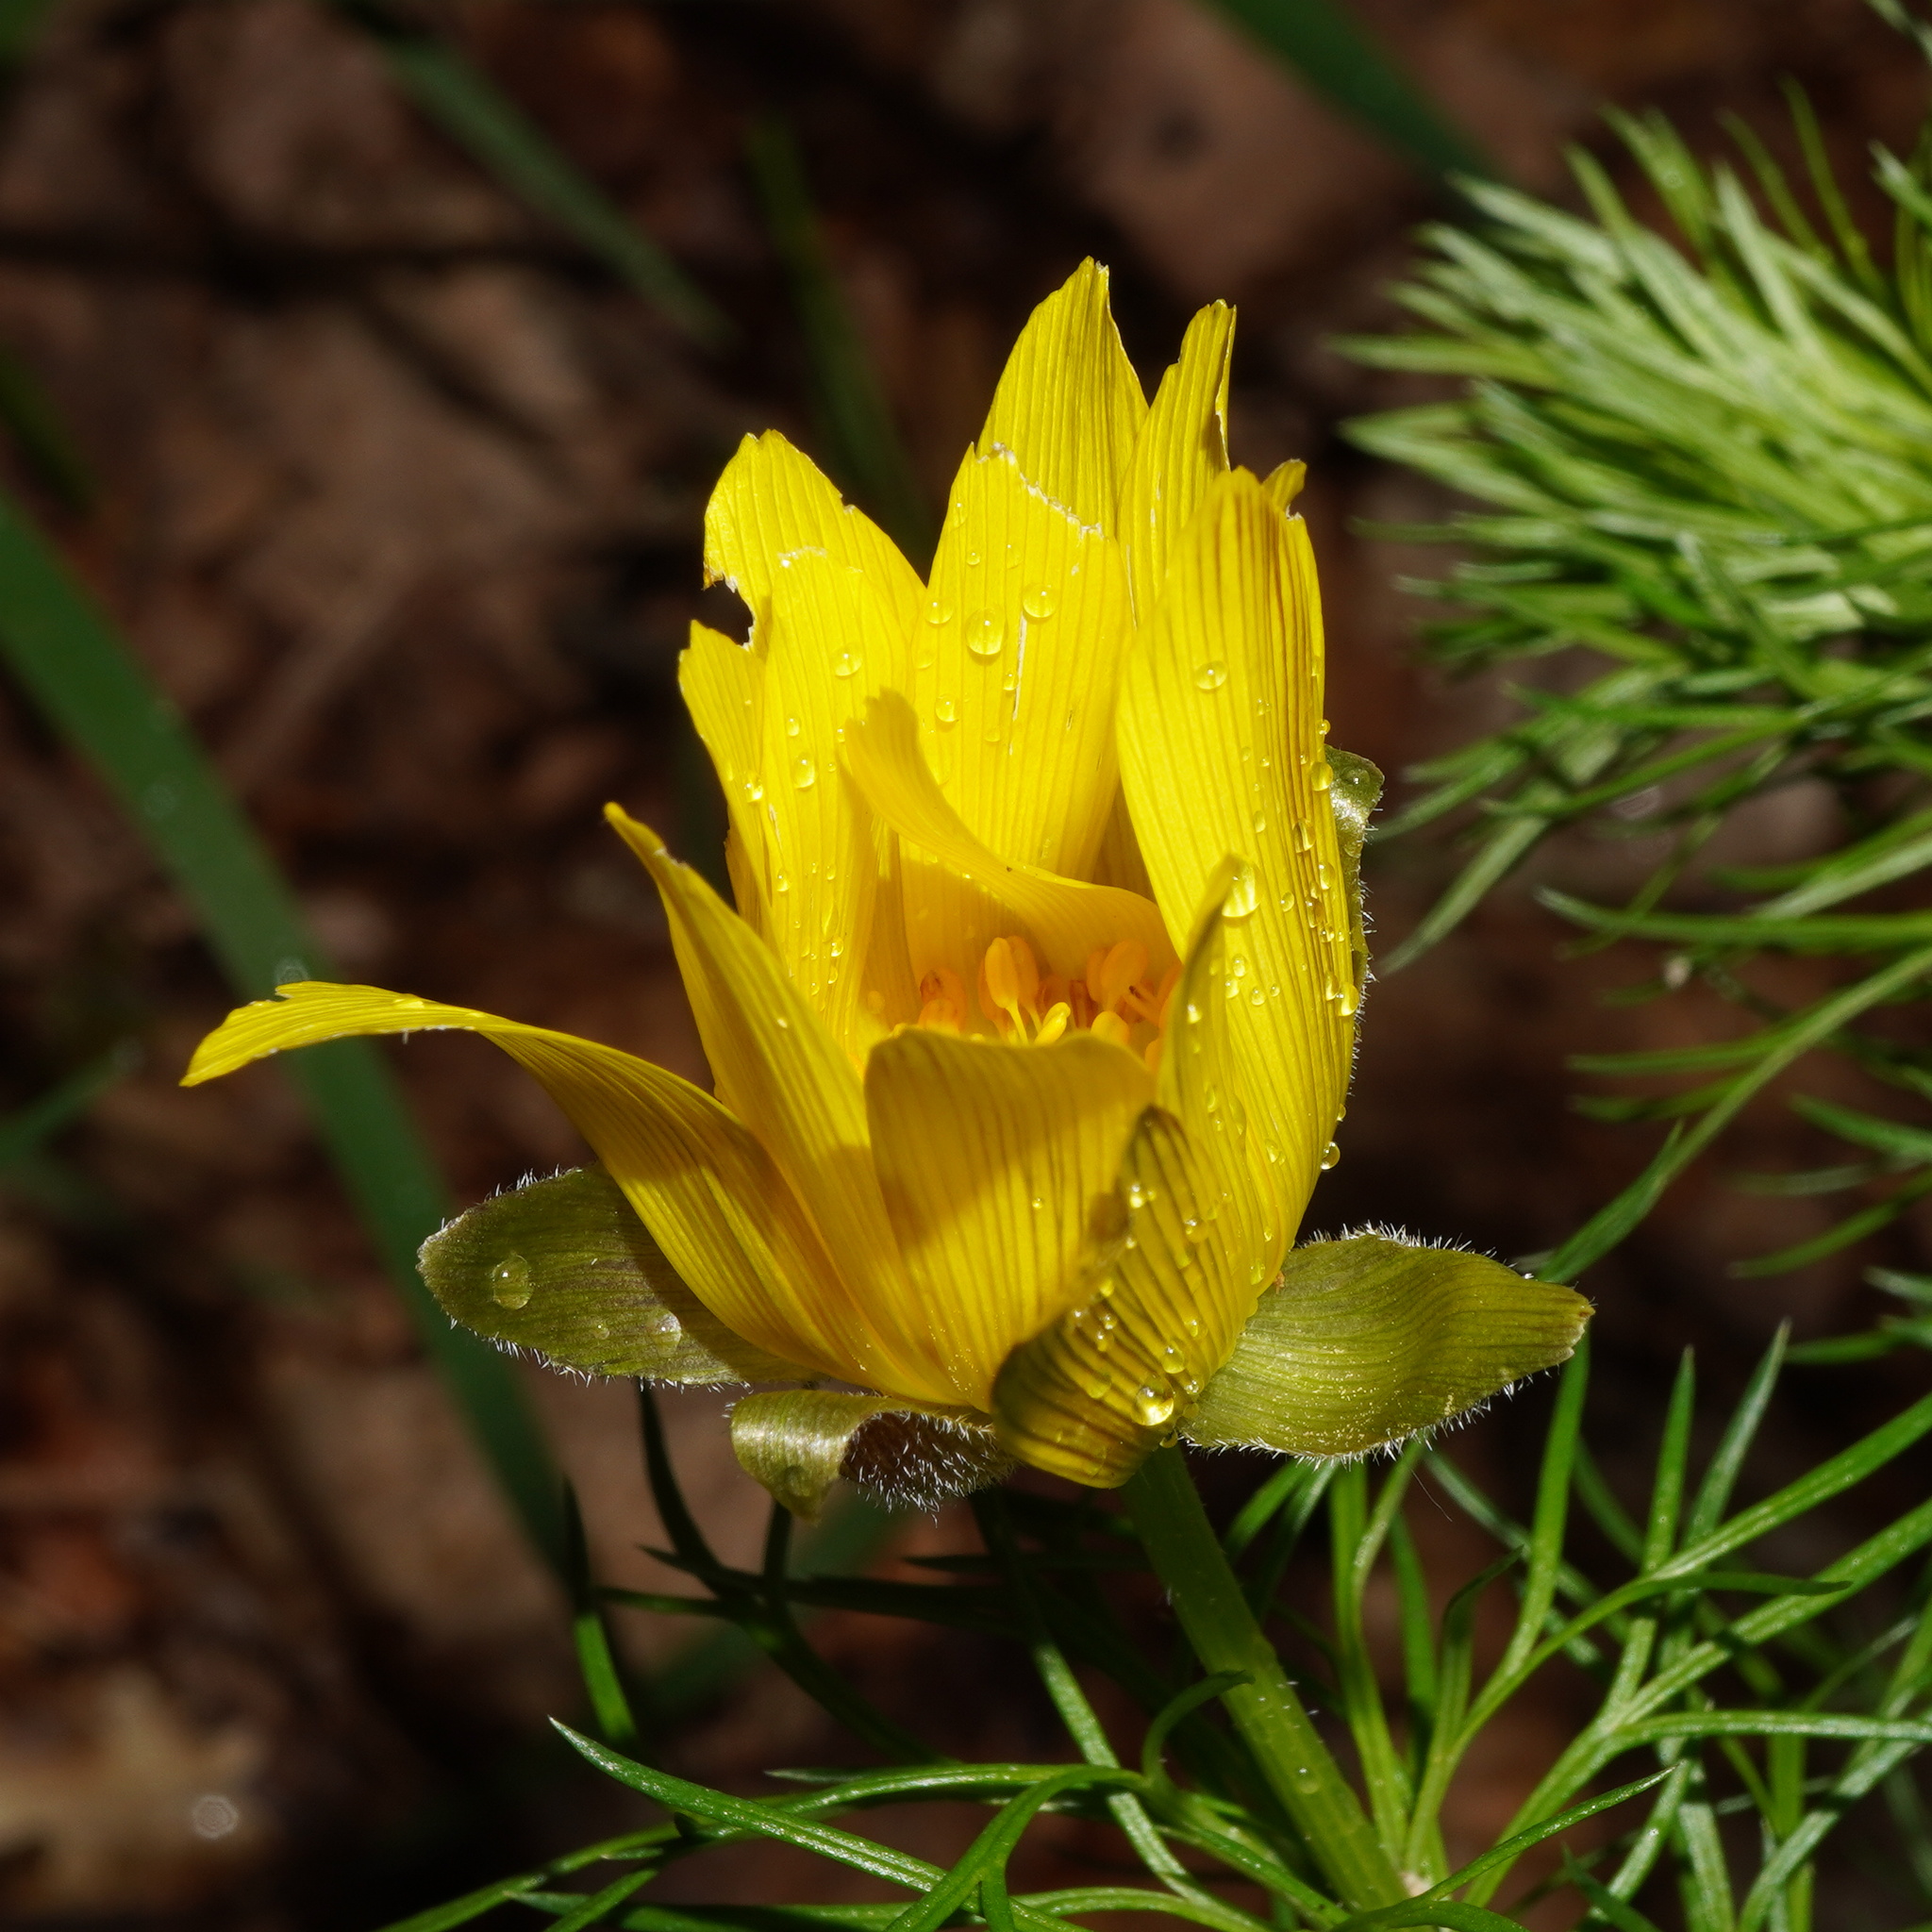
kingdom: Plantae
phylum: Tracheophyta
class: Magnoliopsida
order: Ranunculales
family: Ranunculaceae
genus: Adonis
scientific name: Adonis vernalis
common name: Yellow pheasants-eye
